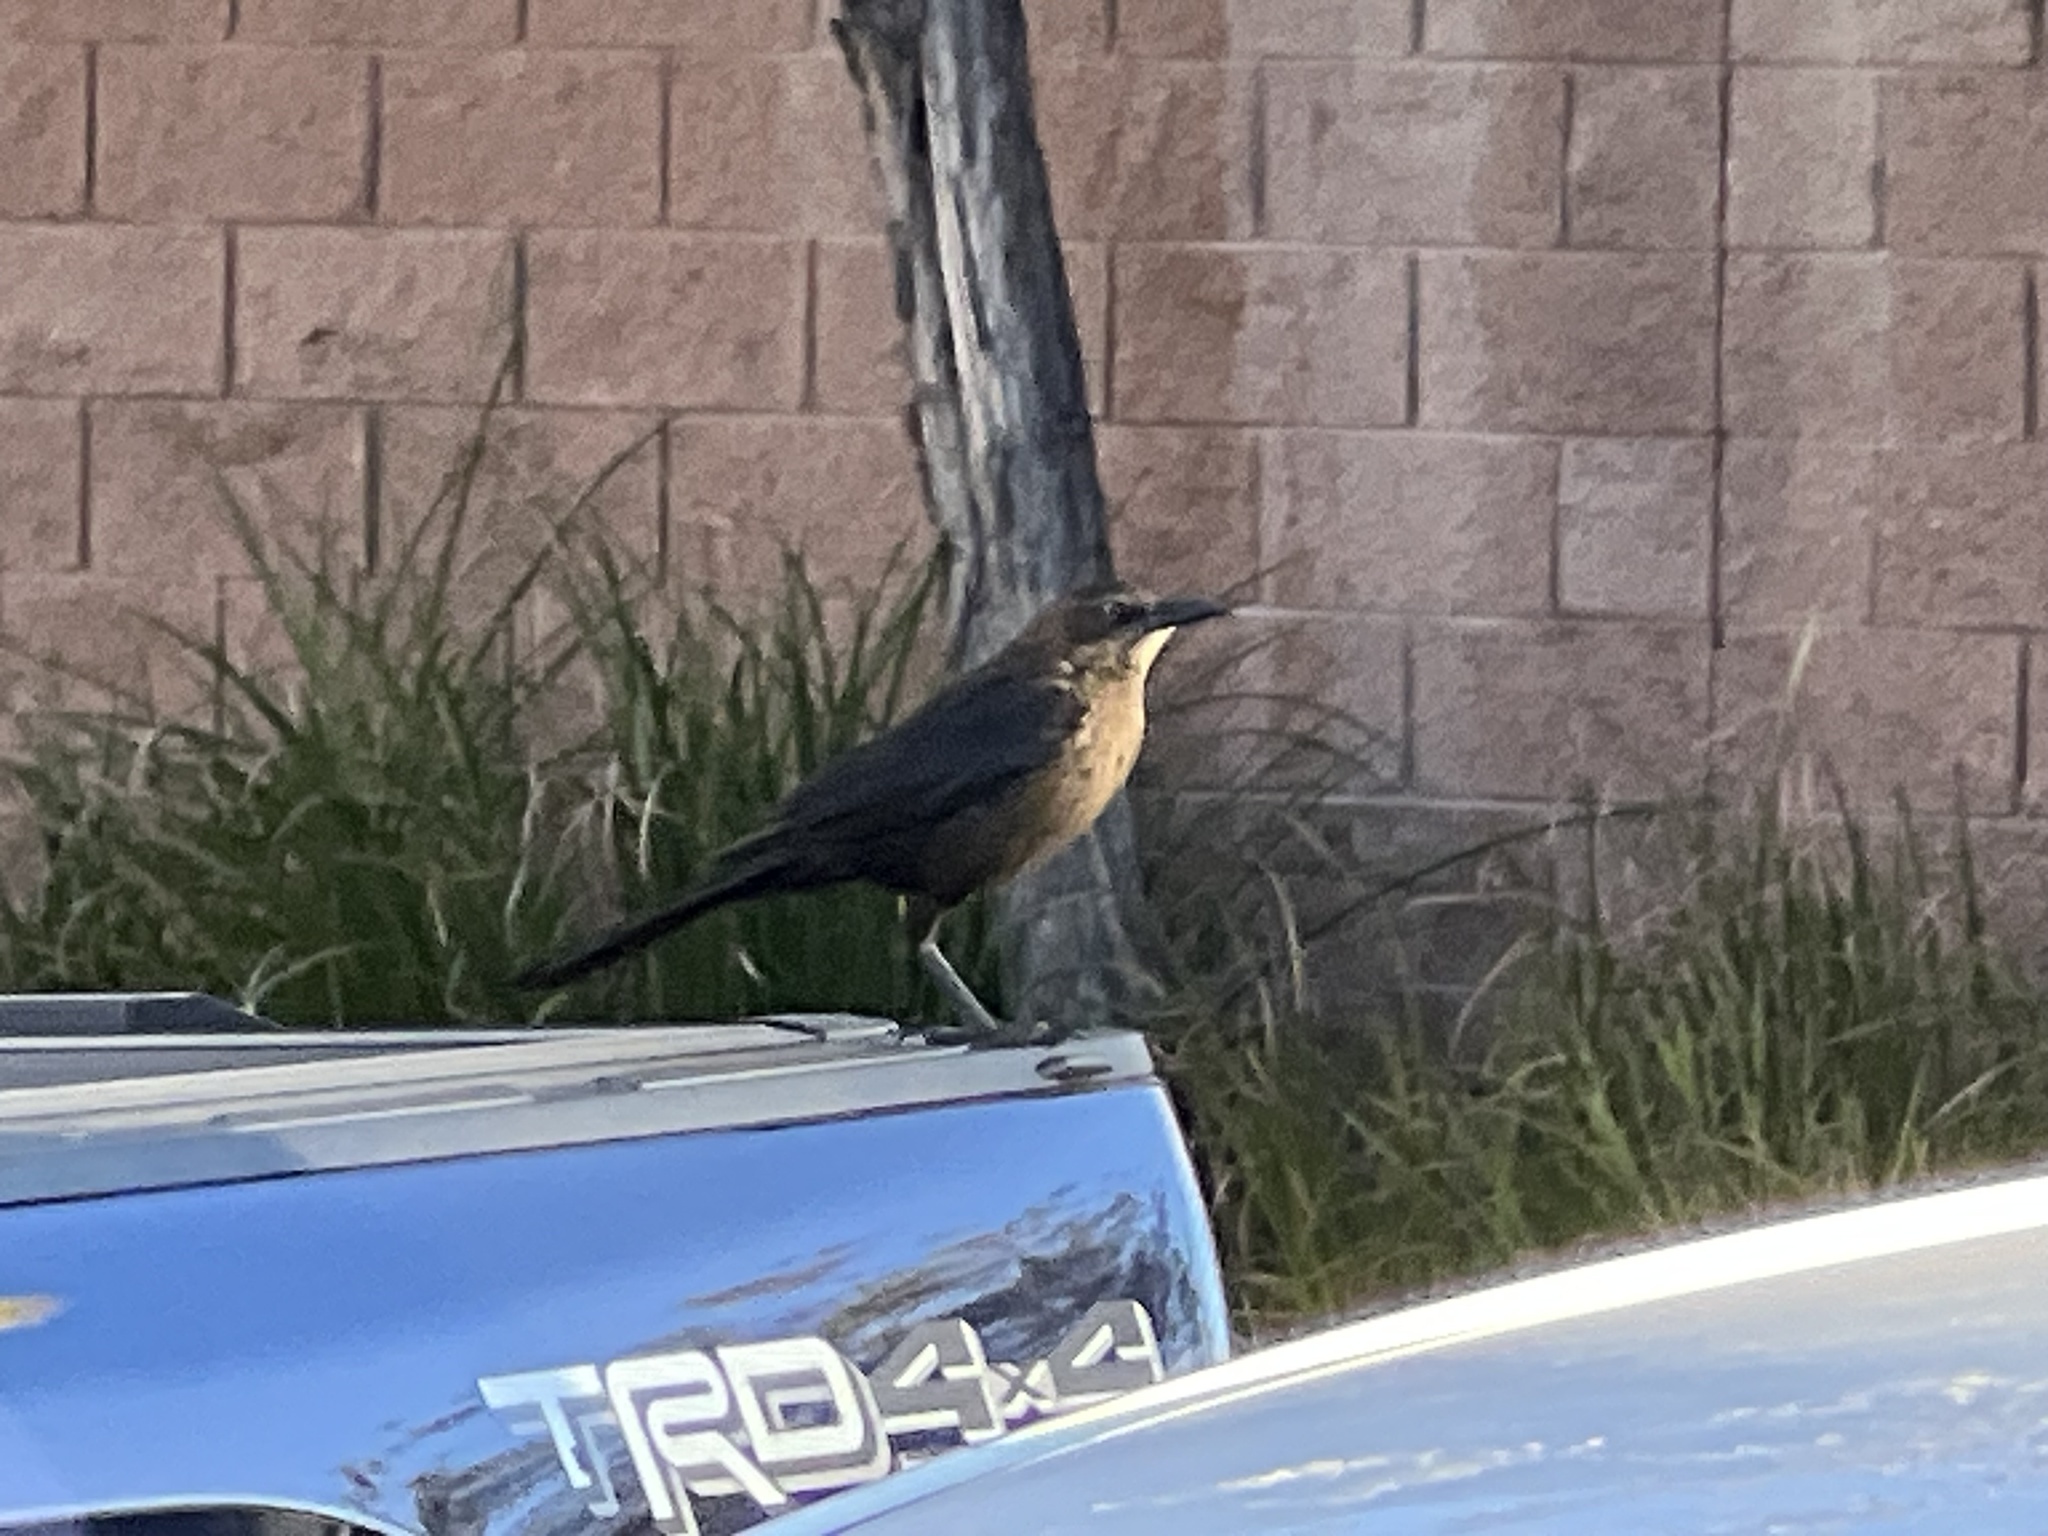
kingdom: Animalia
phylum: Chordata
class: Aves
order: Passeriformes
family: Icteridae
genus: Quiscalus
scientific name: Quiscalus mexicanus
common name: Great-tailed grackle
